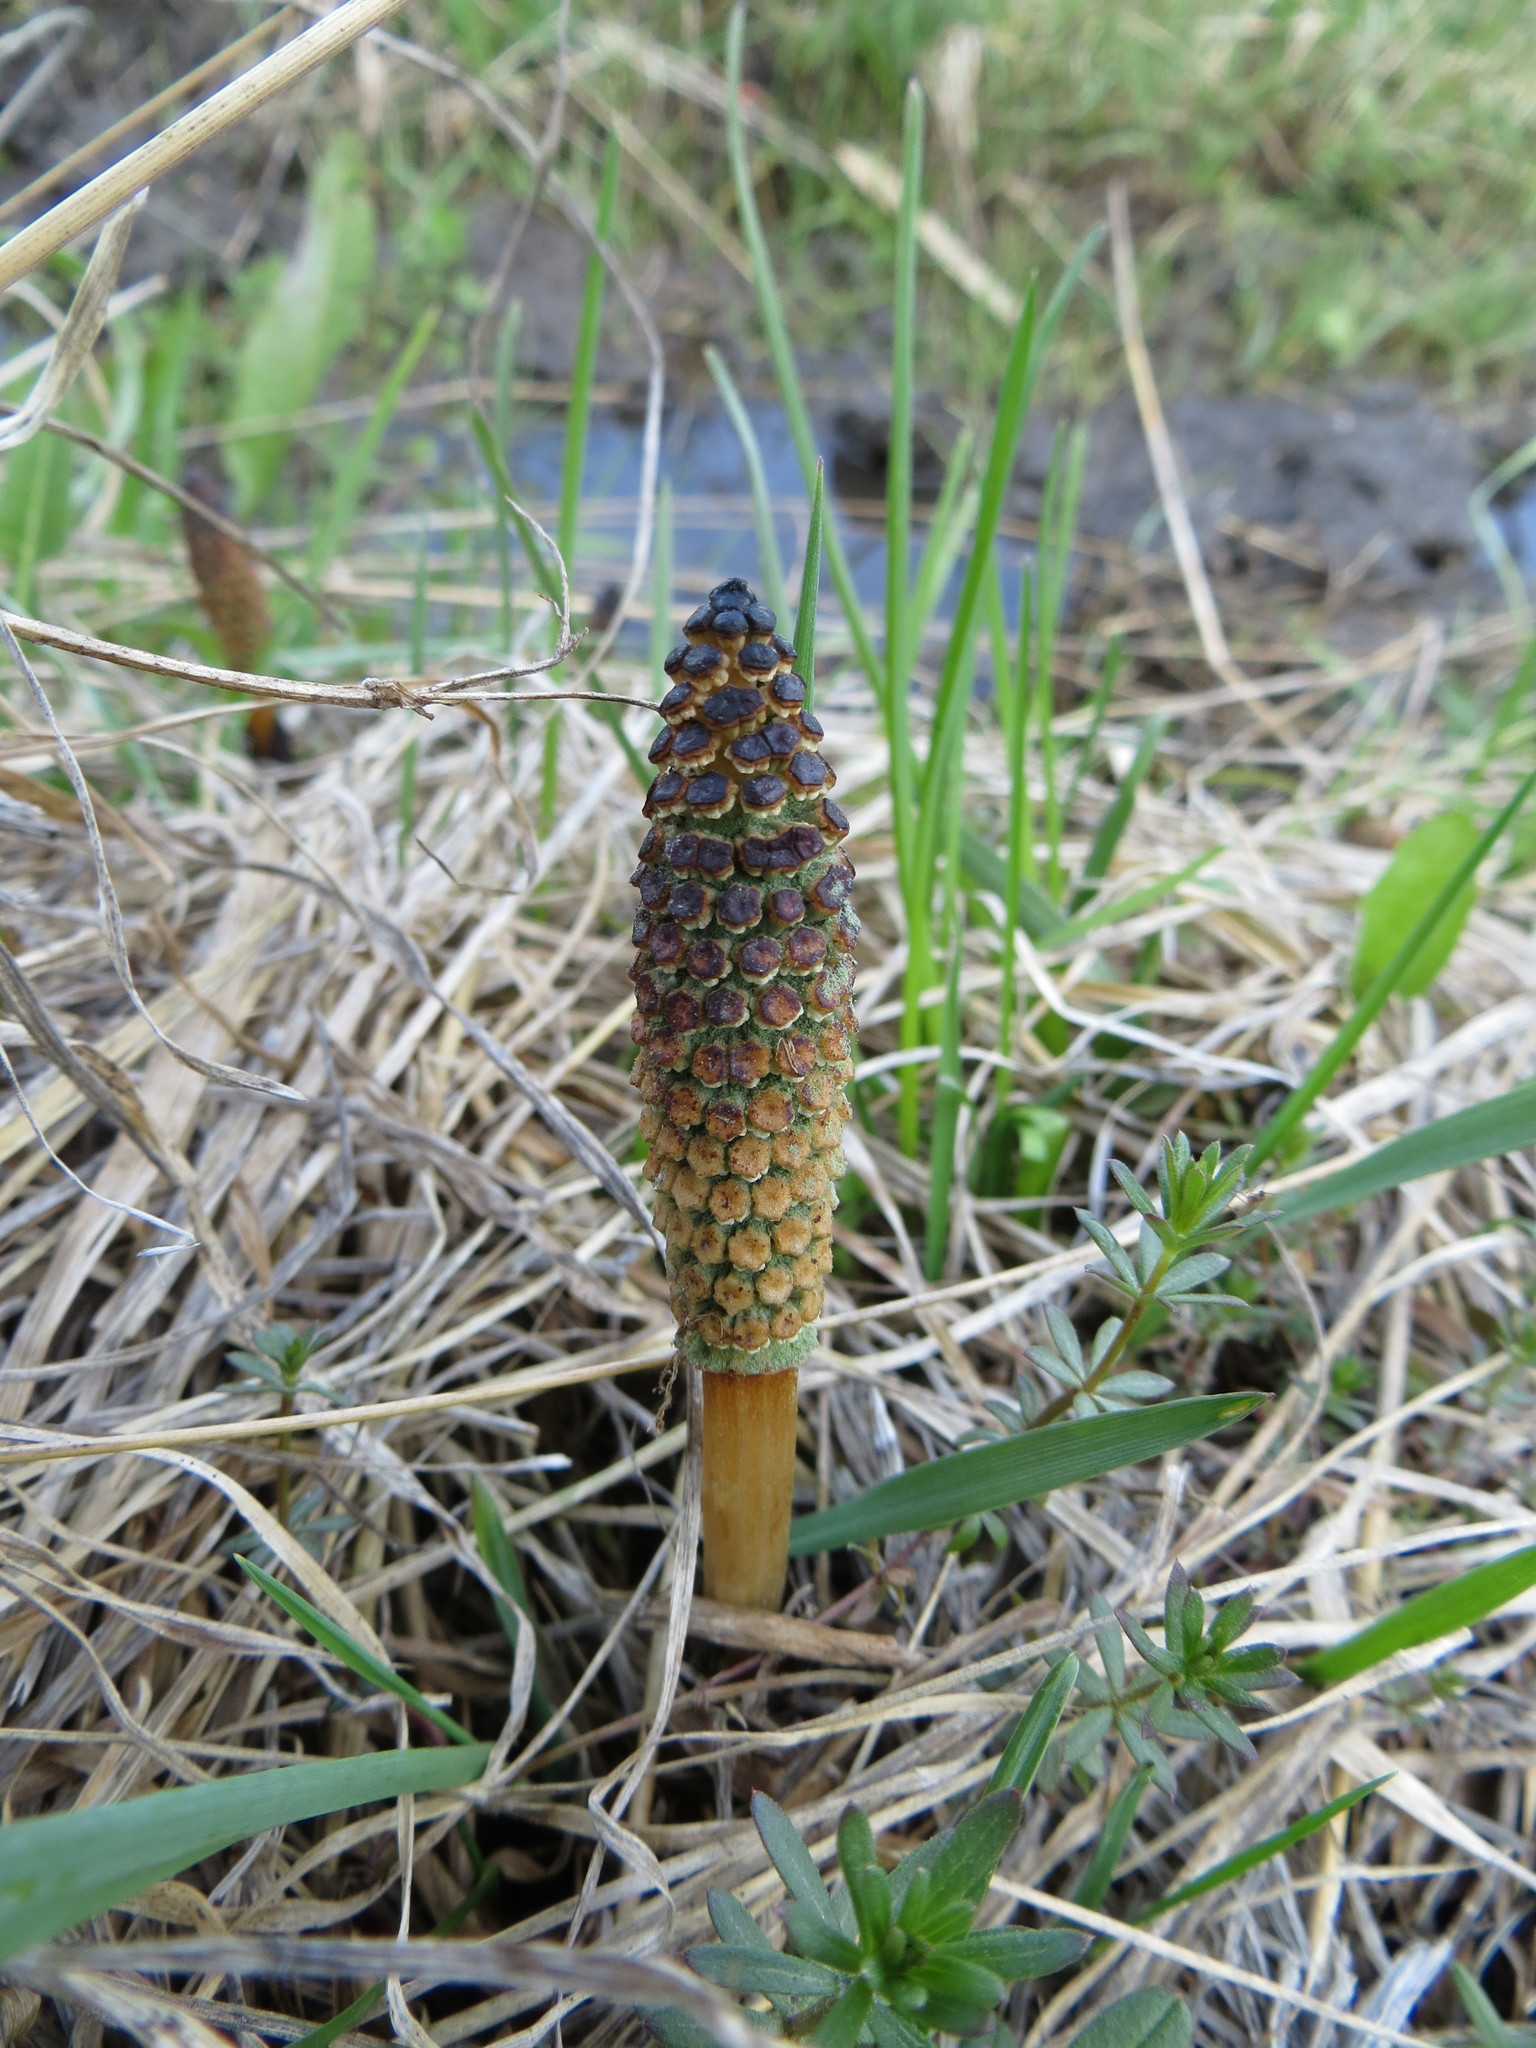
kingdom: Plantae
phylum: Tracheophyta
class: Polypodiopsida
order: Equisetales
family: Equisetaceae
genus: Equisetum
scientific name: Equisetum arvense
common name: Field horsetail
